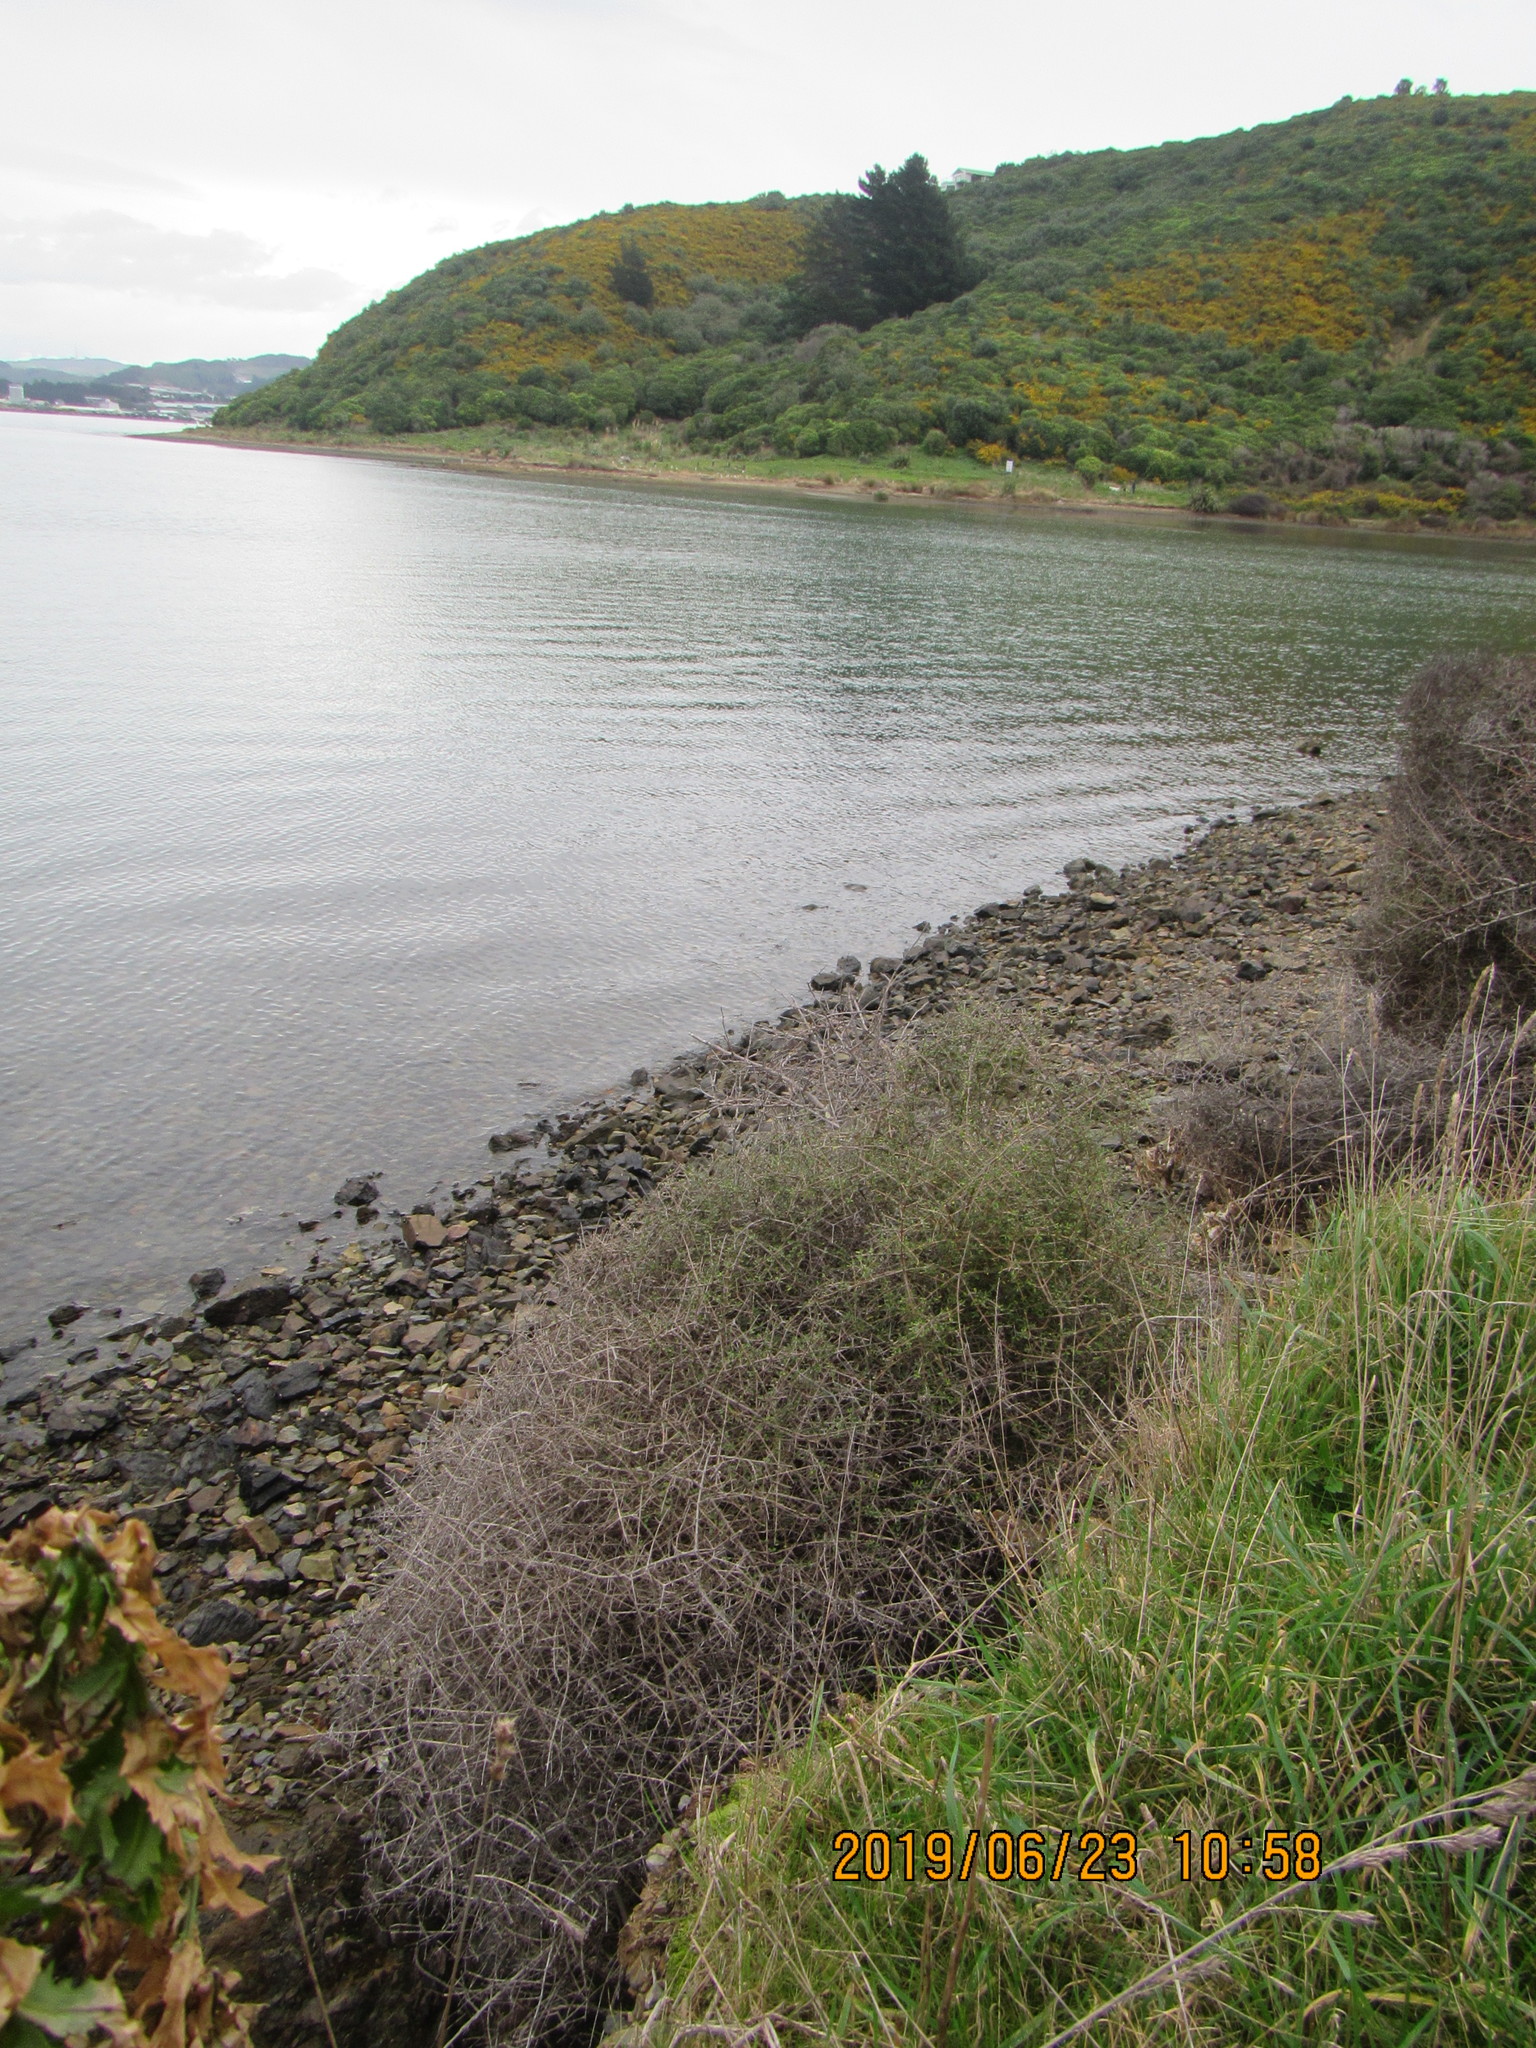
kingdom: Plantae
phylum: Tracheophyta
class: Magnoliopsida
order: Gentianales
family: Rubiaceae
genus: Coprosma
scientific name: Coprosma propinqua
